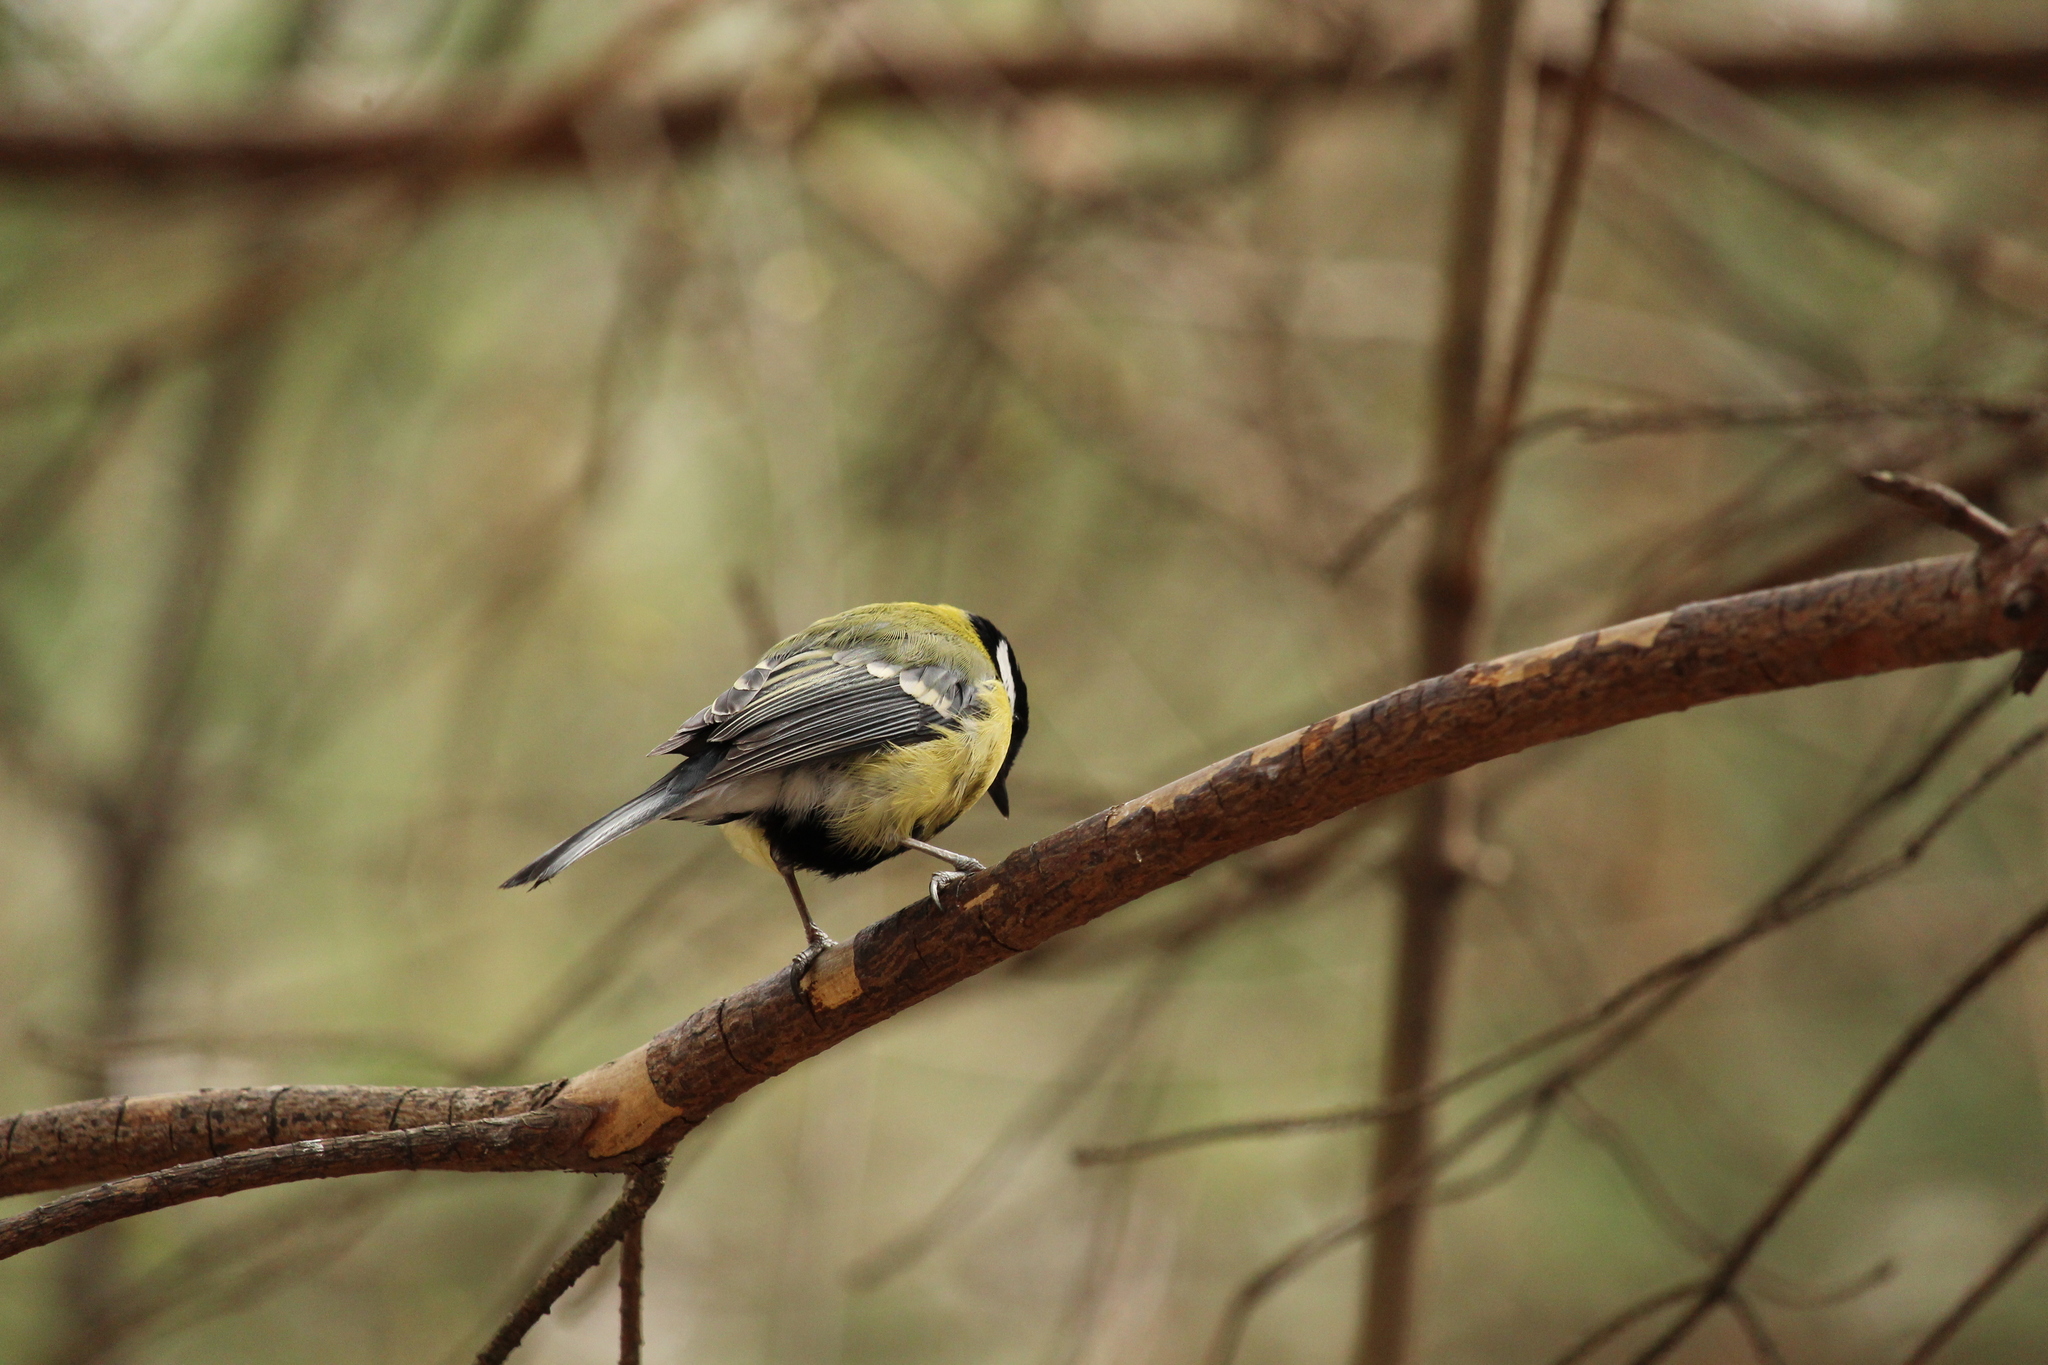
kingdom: Animalia
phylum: Chordata
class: Aves
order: Passeriformes
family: Paridae
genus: Parus
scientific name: Parus major
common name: Great tit
